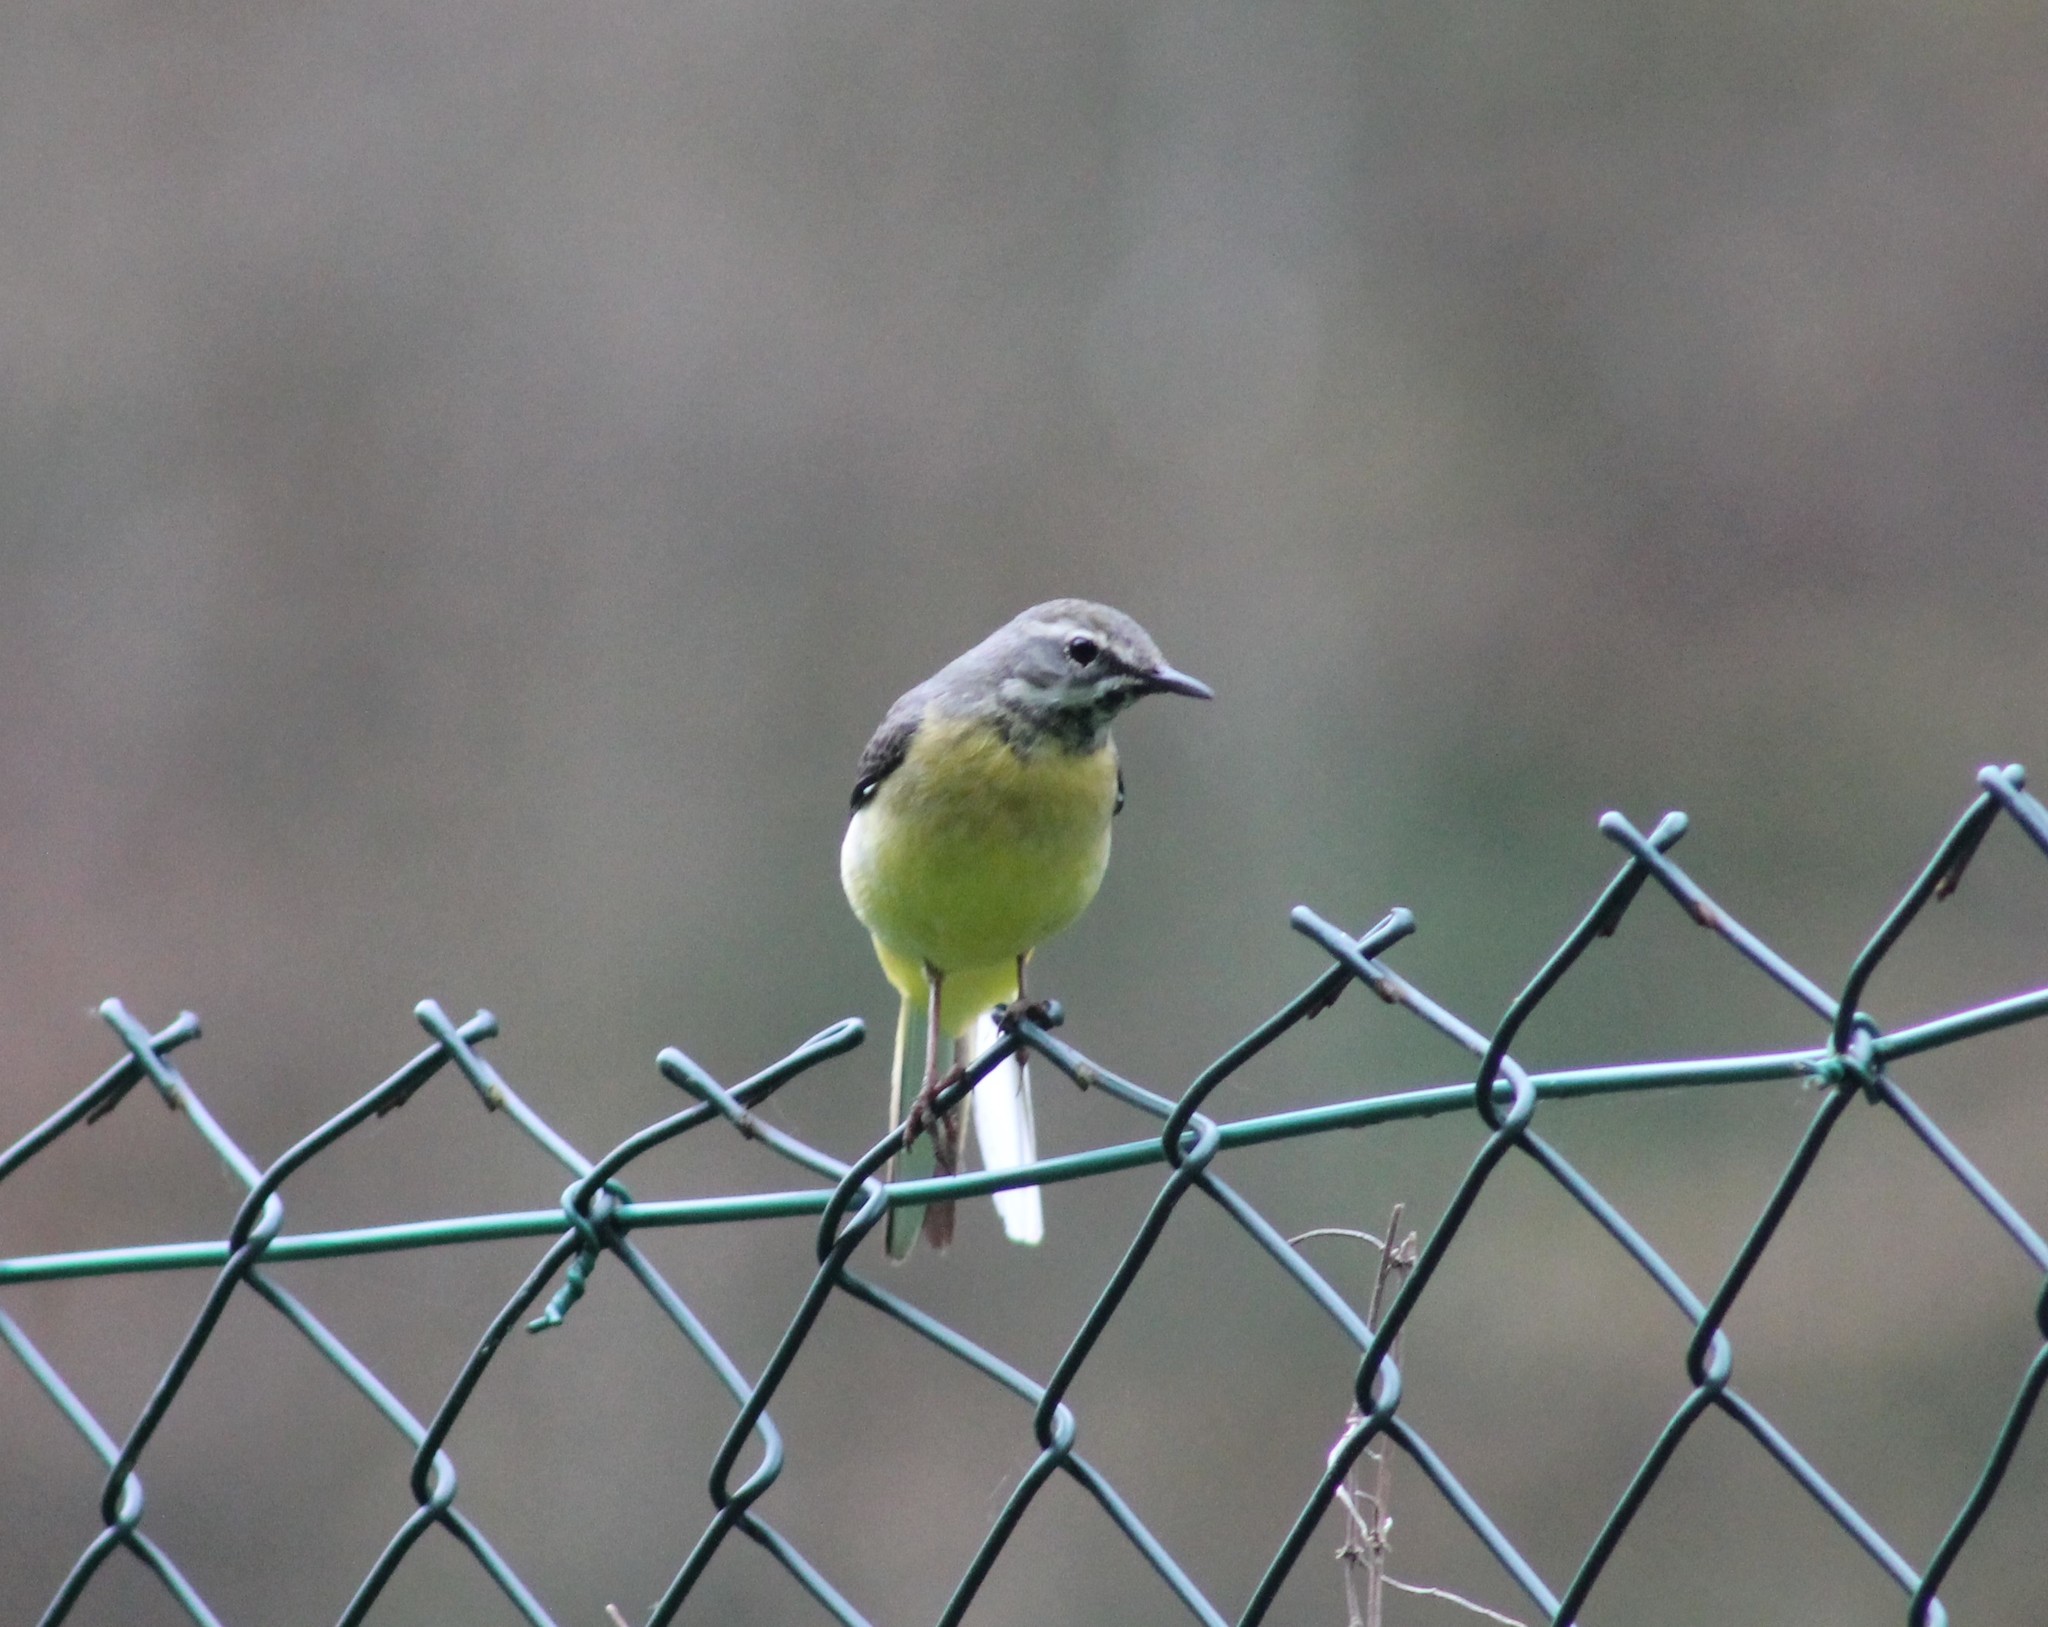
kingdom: Animalia
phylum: Chordata
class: Aves
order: Passeriformes
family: Motacillidae
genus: Motacilla
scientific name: Motacilla cinerea
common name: Grey wagtail
